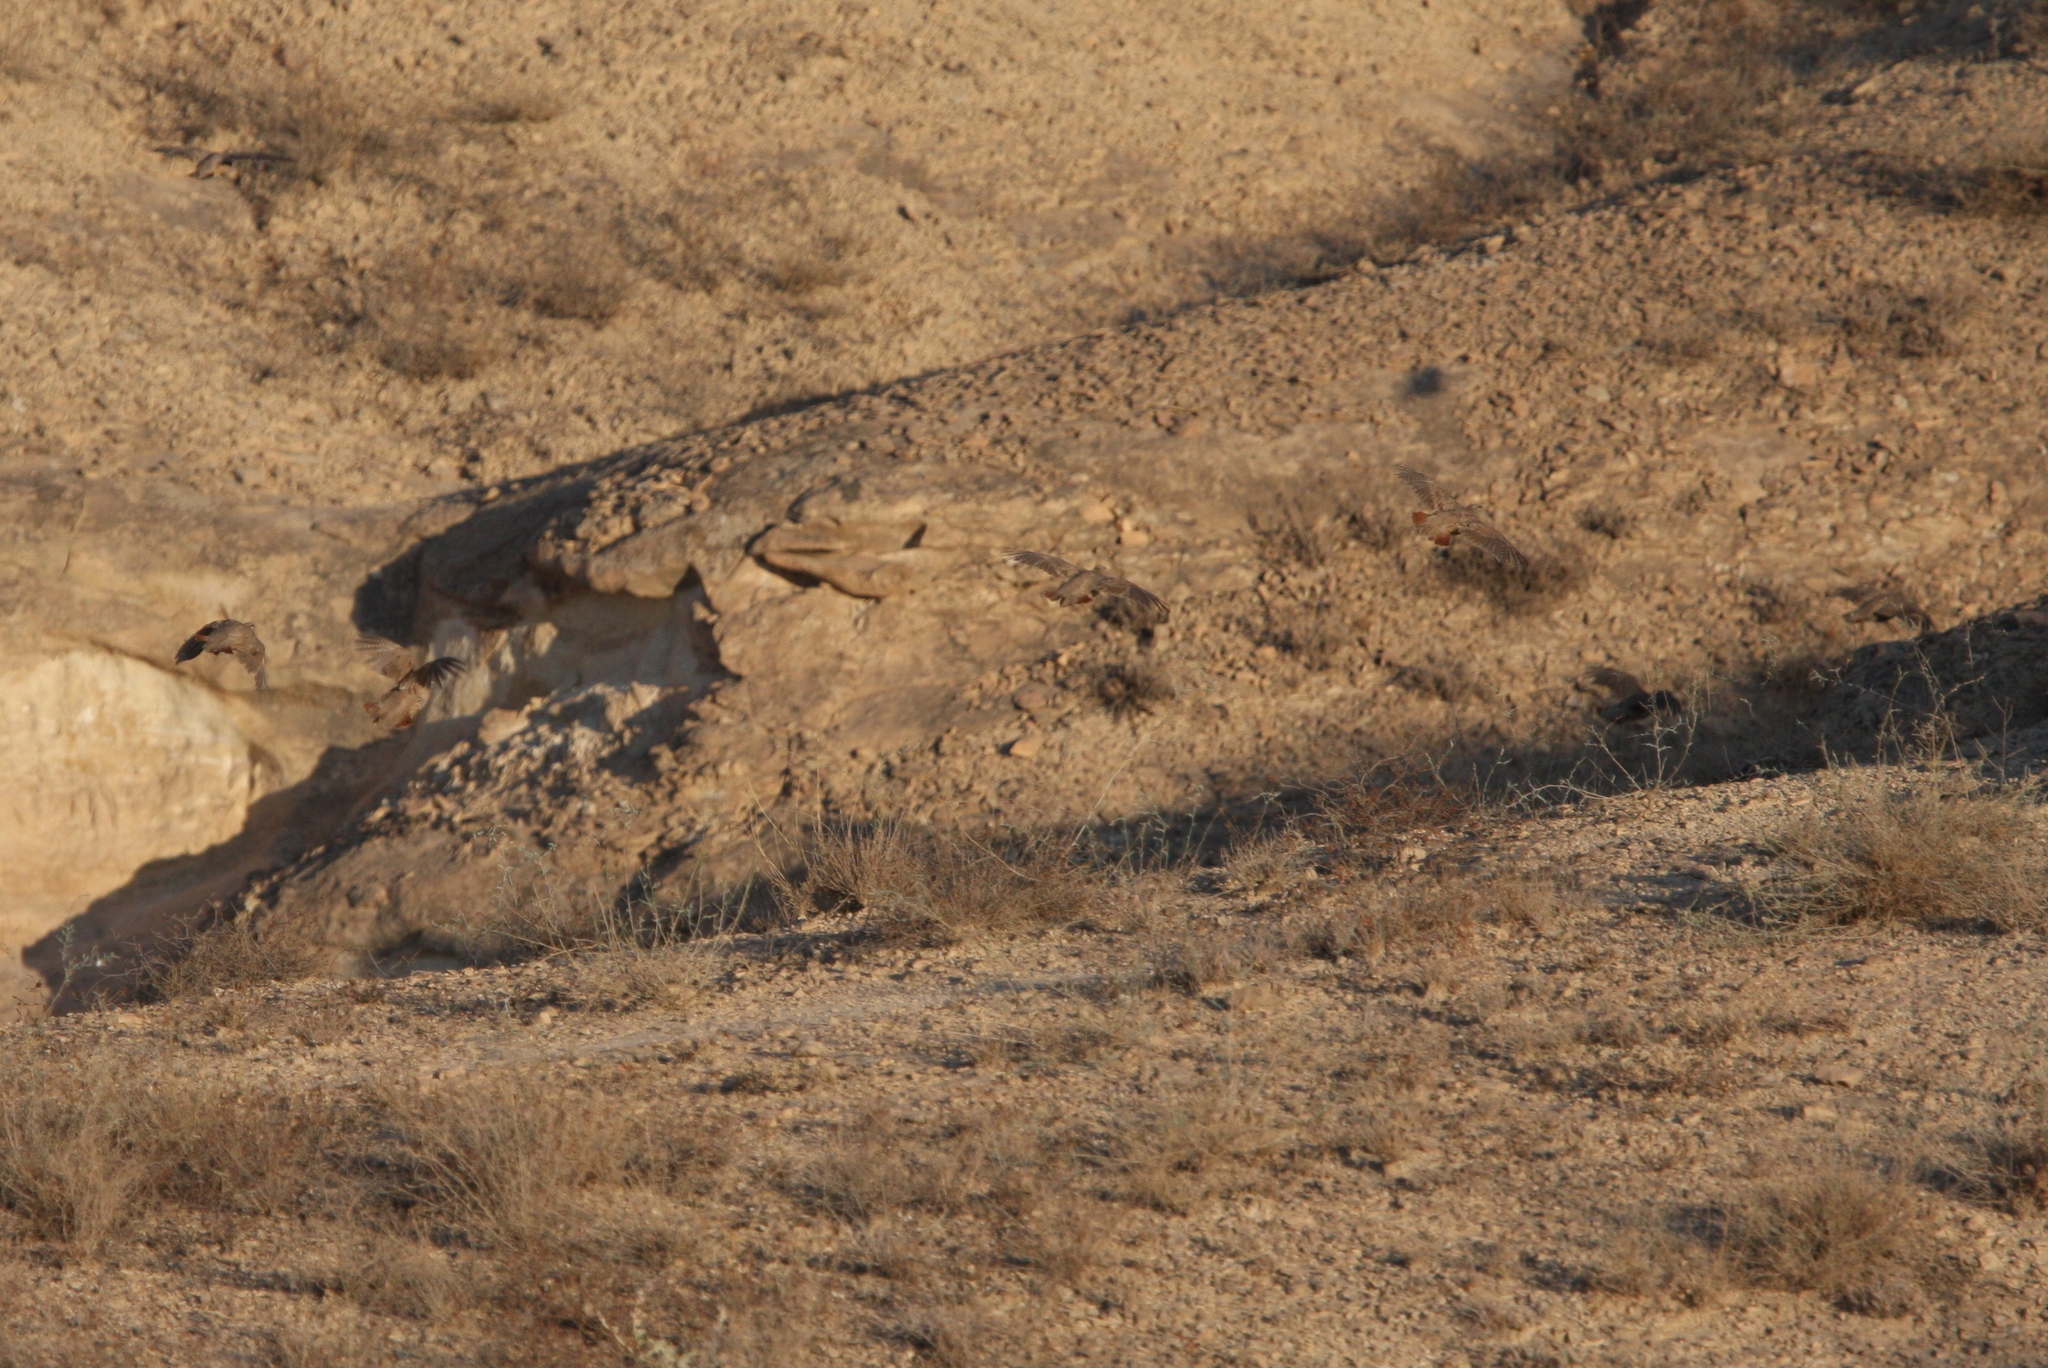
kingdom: Animalia
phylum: Chordata
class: Aves
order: Galliformes
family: Phasianidae
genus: Ammoperdix
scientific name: Ammoperdix griseogularis
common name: See-see partridge
